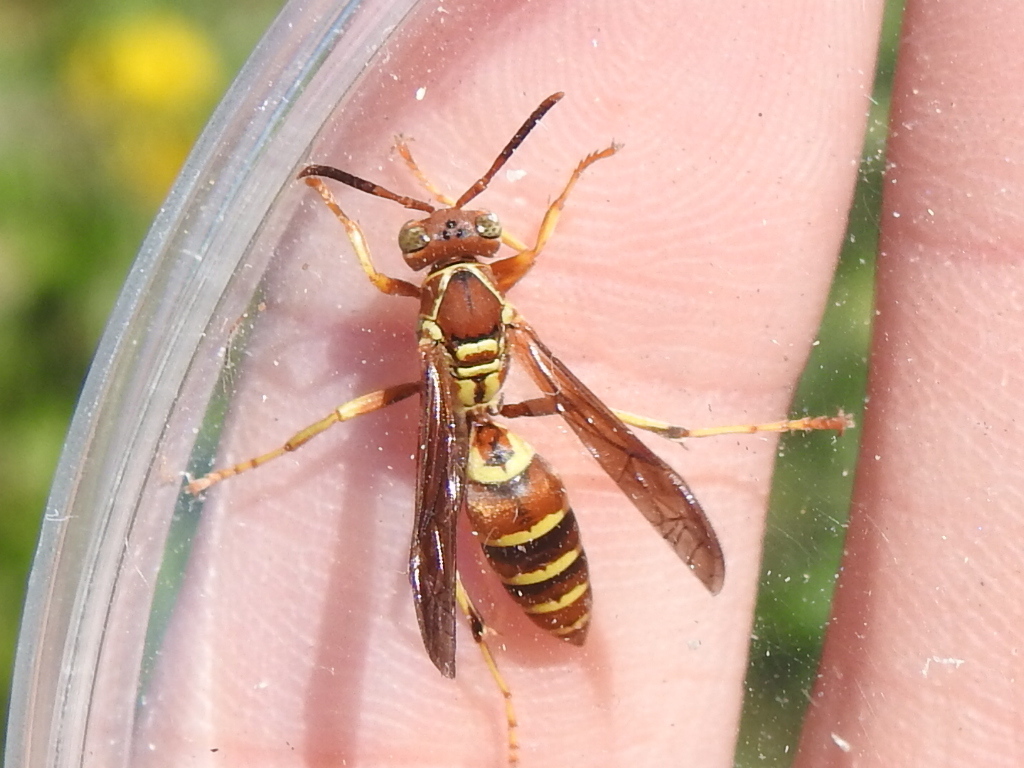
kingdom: Animalia
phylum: Arthropoda
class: Insecta
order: Hymenoptera
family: Eumenidae
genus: Polistes
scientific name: Polistes dorsalis
